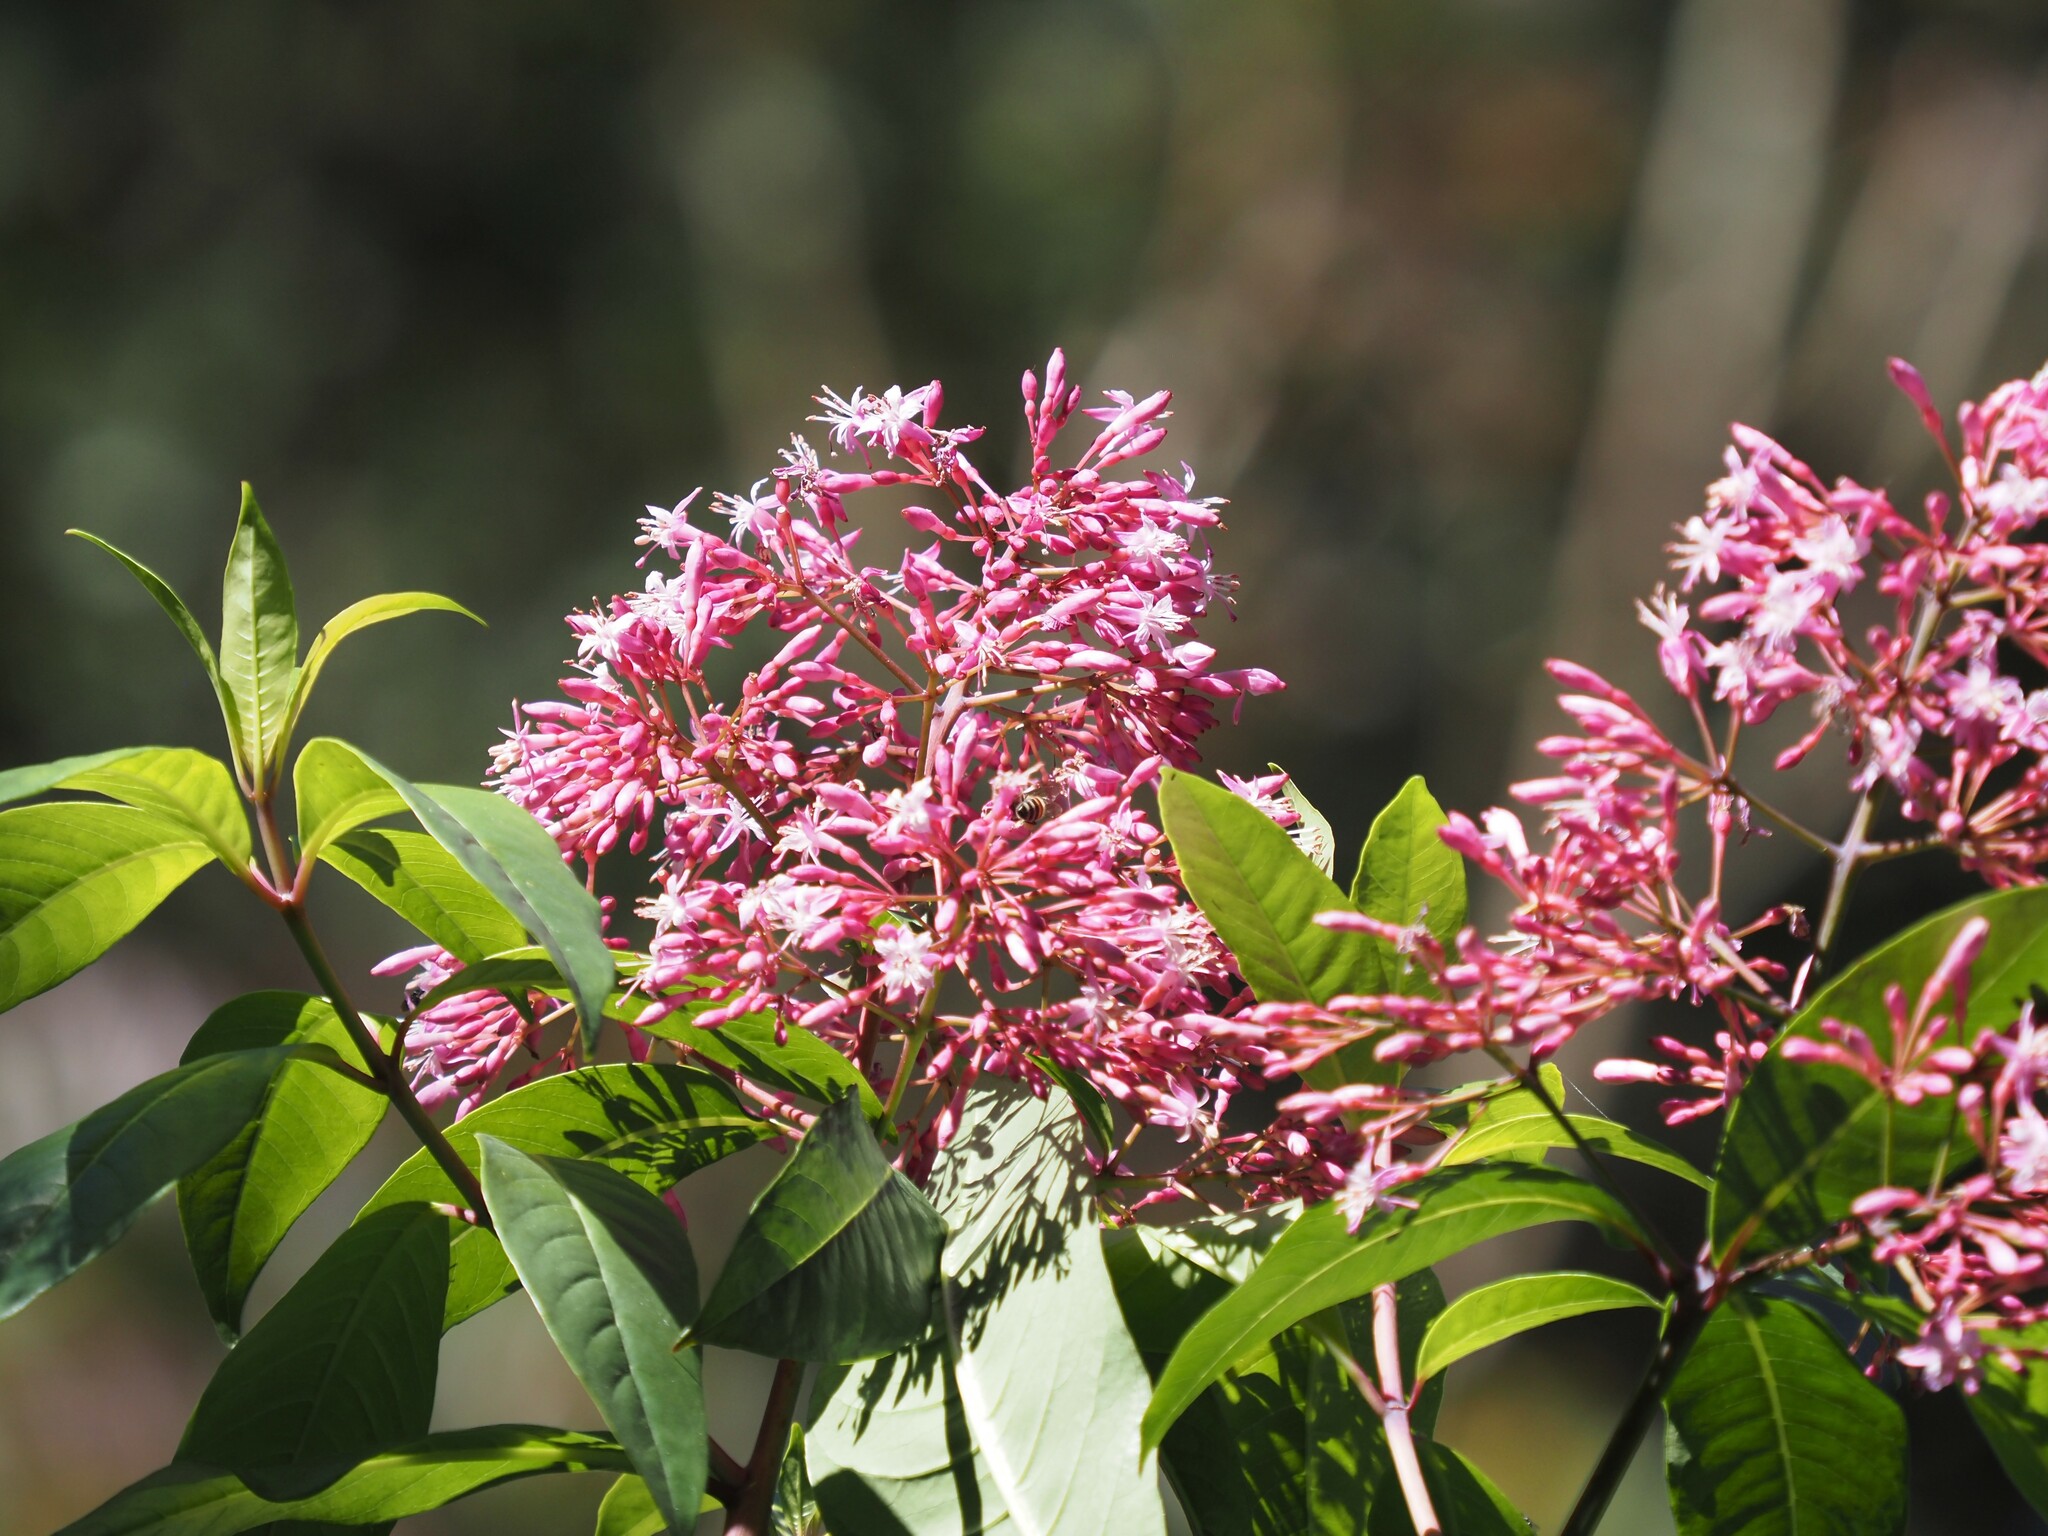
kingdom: Plantae
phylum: Tracheophyta
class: Magnoliopsida
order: Myrtales
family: Onagraceae
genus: Fuchsia
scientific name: Fuchsia arborescens
